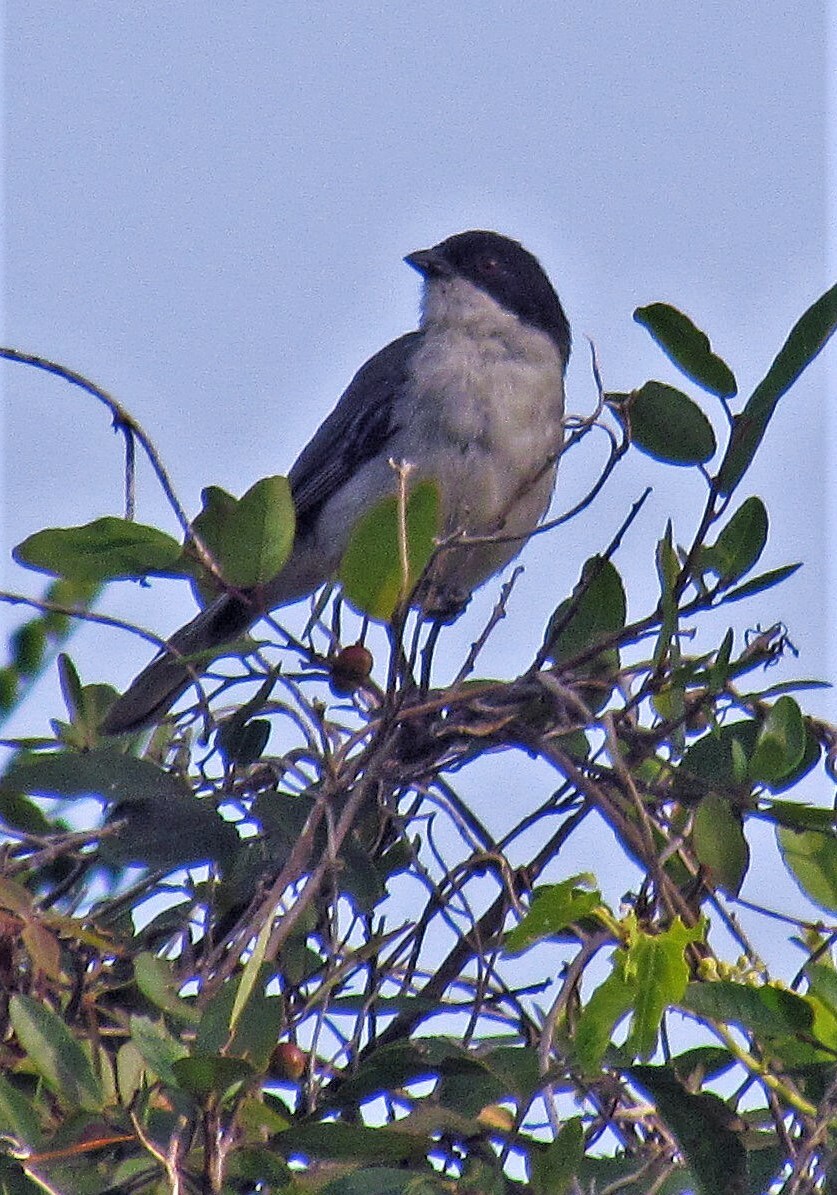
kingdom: Animalia
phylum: Chordata
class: Aves
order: Passeriformes
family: Thraupidae
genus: Microspingus
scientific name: Microspingus melanoleucus
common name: Black-capped warbling-finch
